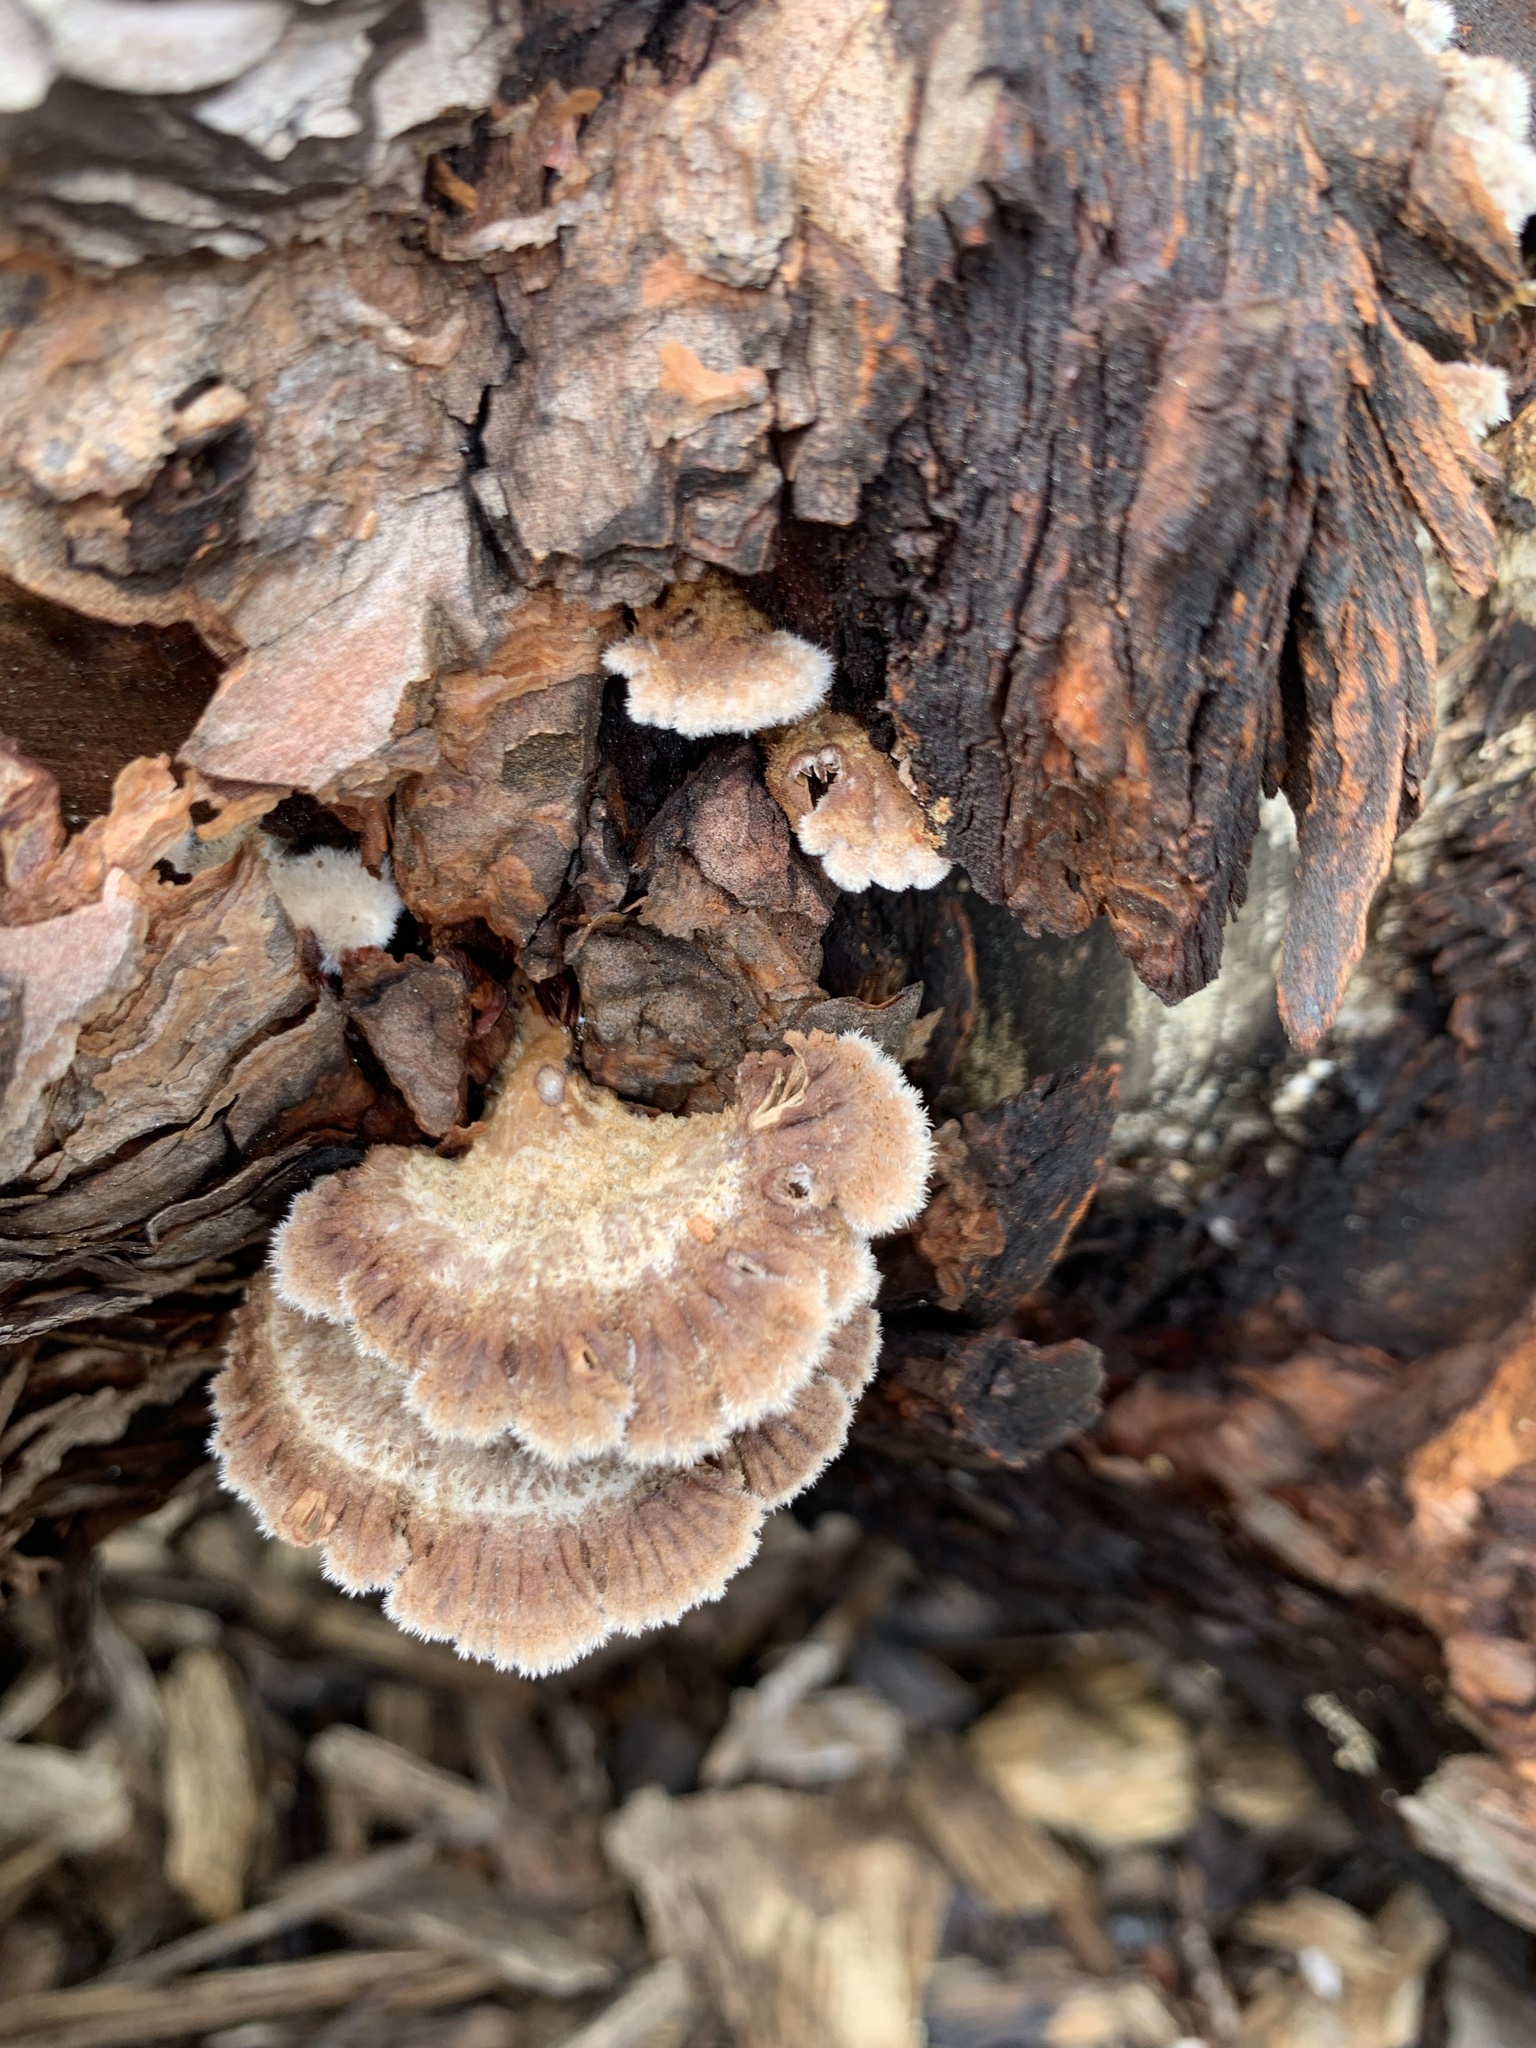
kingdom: Fungi
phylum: Basidiomycota
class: Agaricomycetes
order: Agaricales
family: Schizophyllaceae
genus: Schizophyllum
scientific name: Schizophyllum commune
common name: Common porecrust
